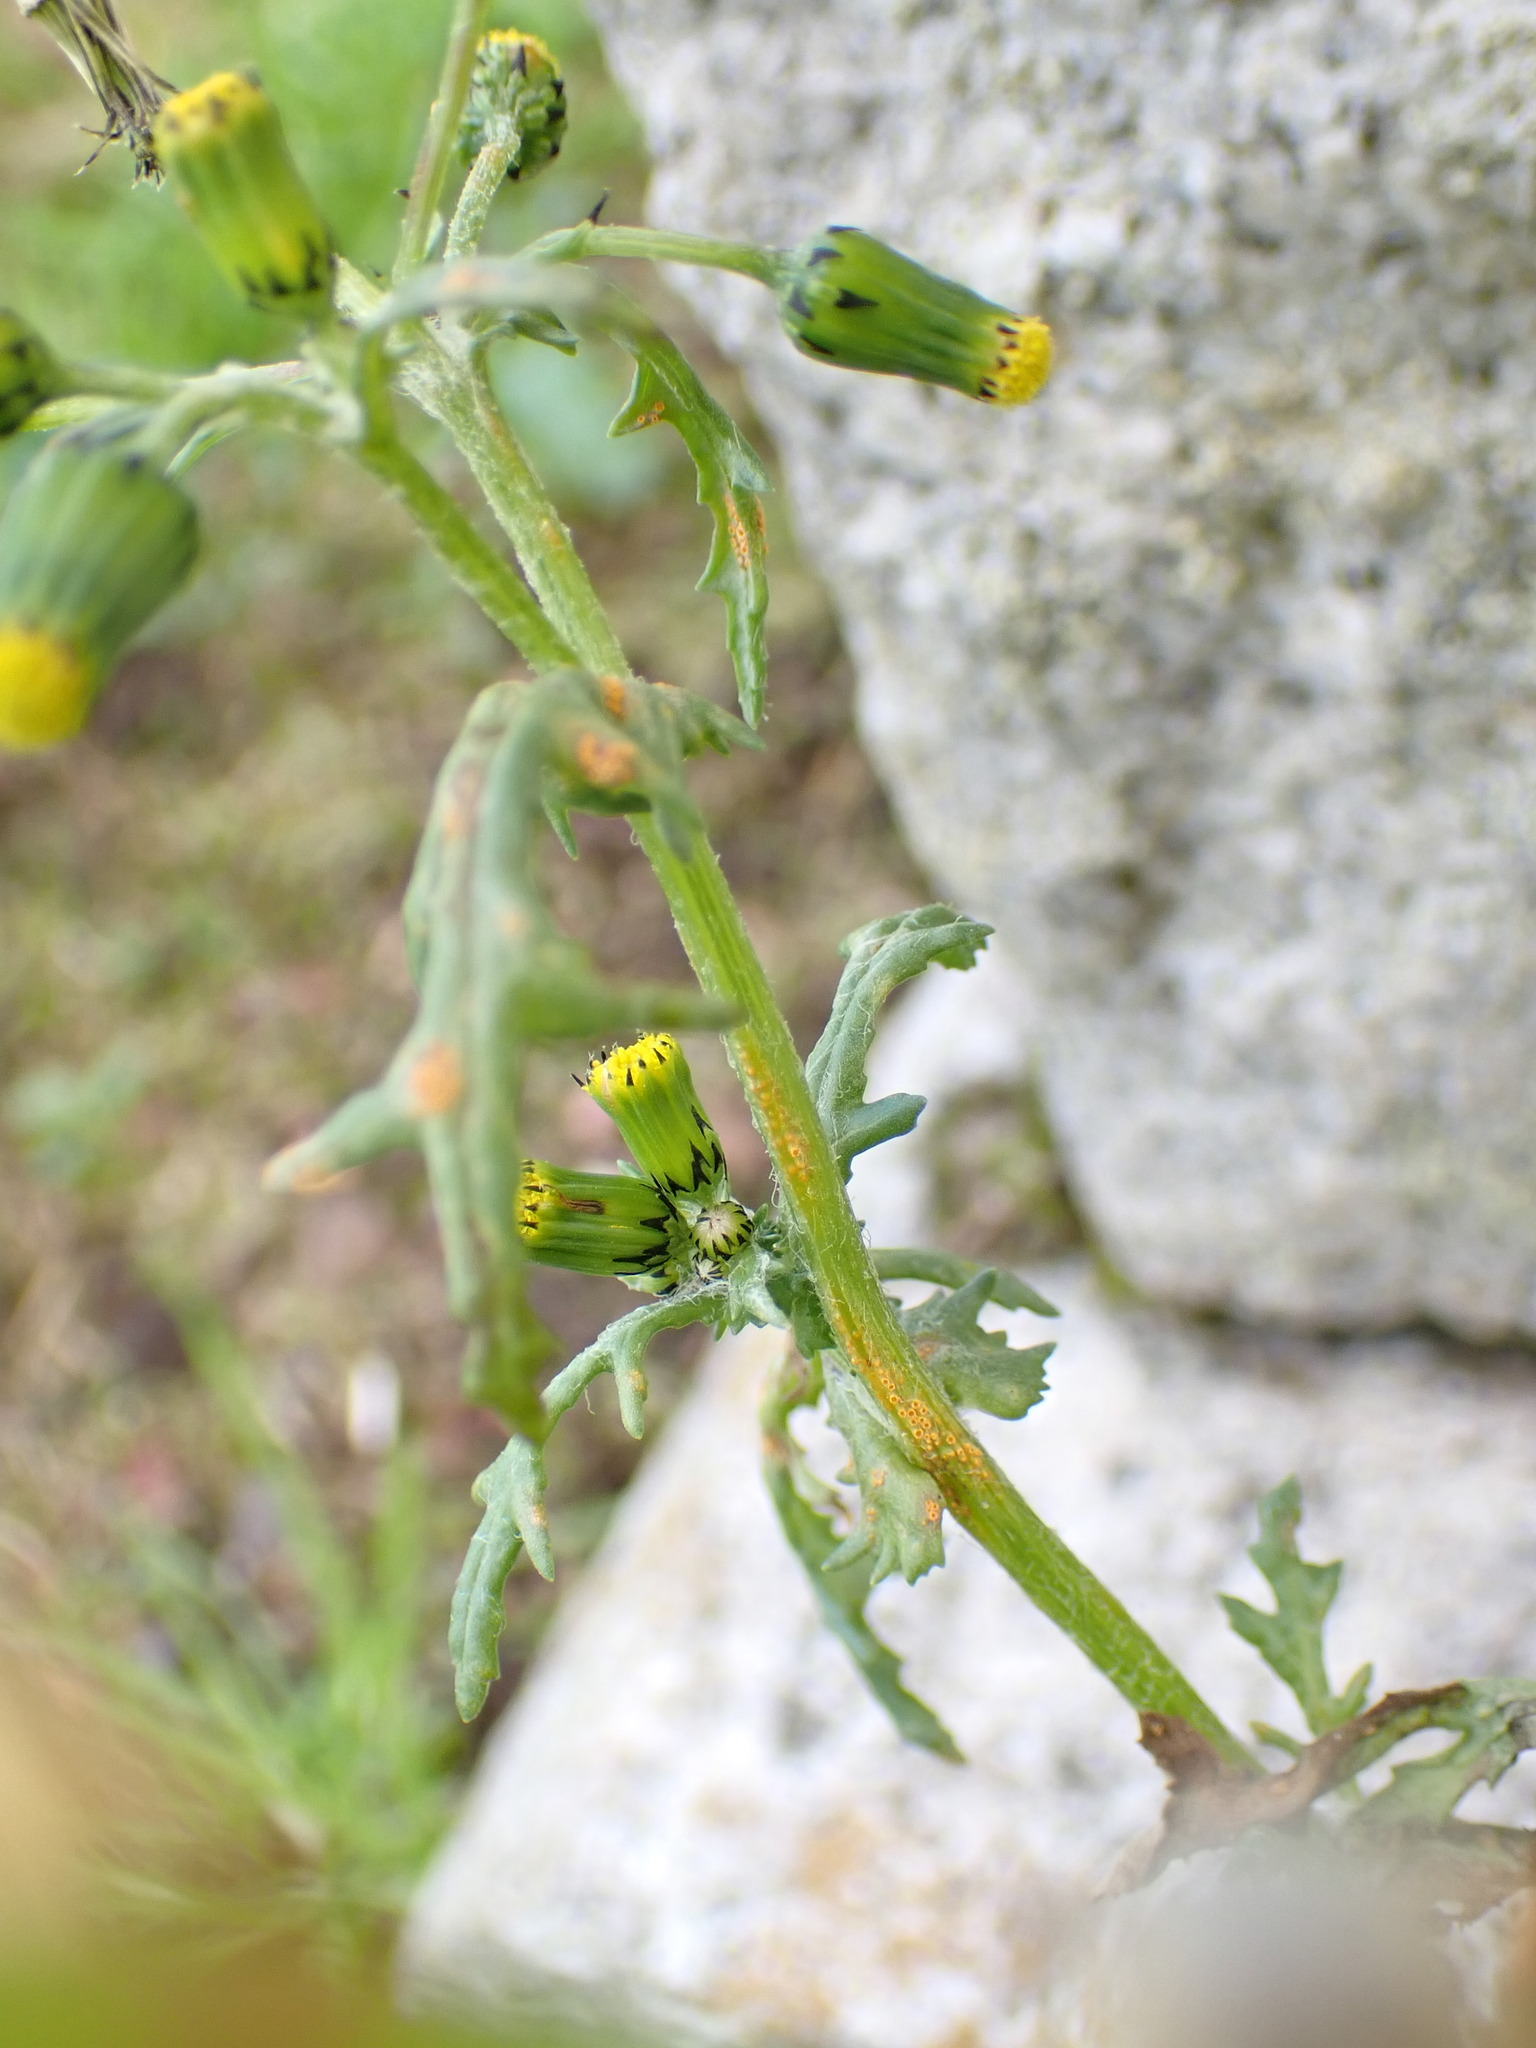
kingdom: Fungi
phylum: Basidiomycota
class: Pucciniomycetes
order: Pucciniales
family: Pucciniaceae
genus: Puccinia
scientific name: Puccinia lagenophorae
